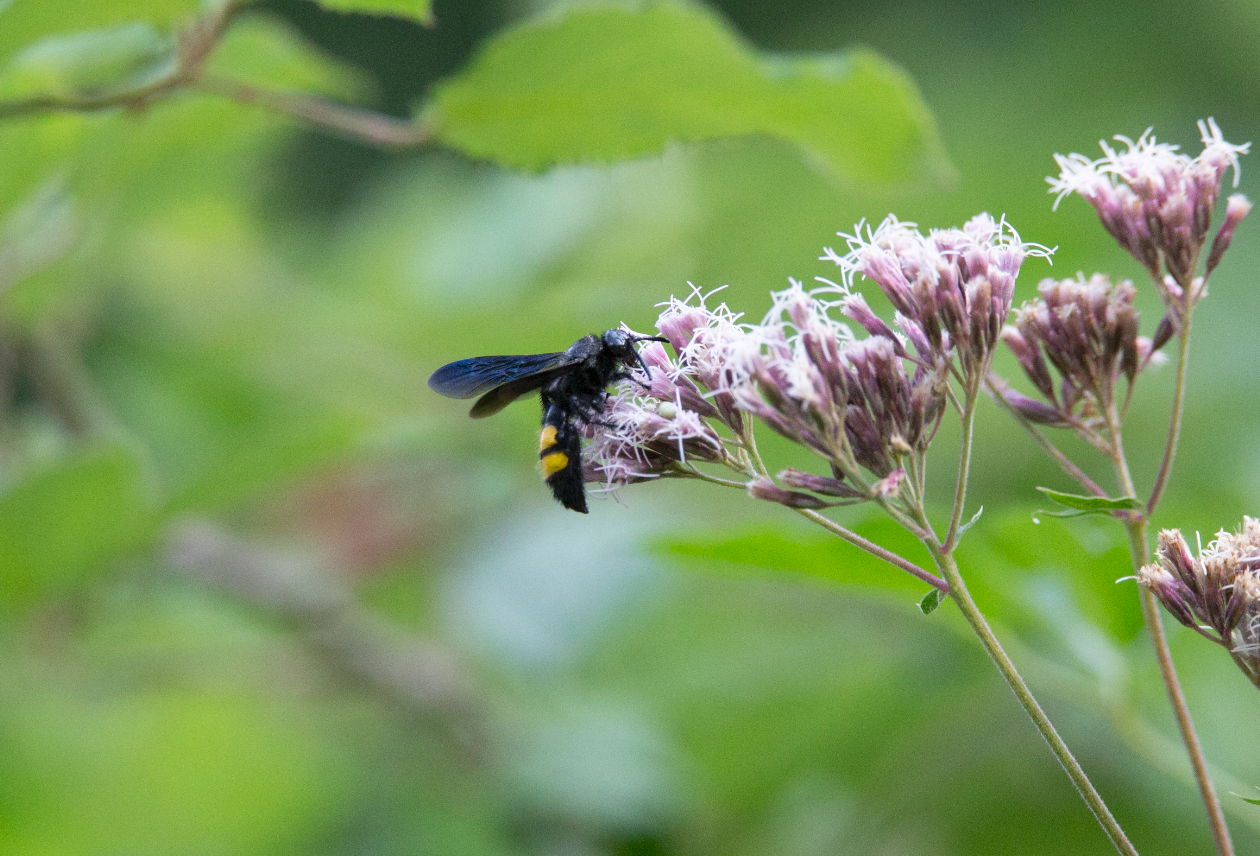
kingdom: Animalia
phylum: Arthropoda
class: Insecta
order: Hymenoptera
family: Scoliidae
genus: Scolia
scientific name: Scolia hirta
